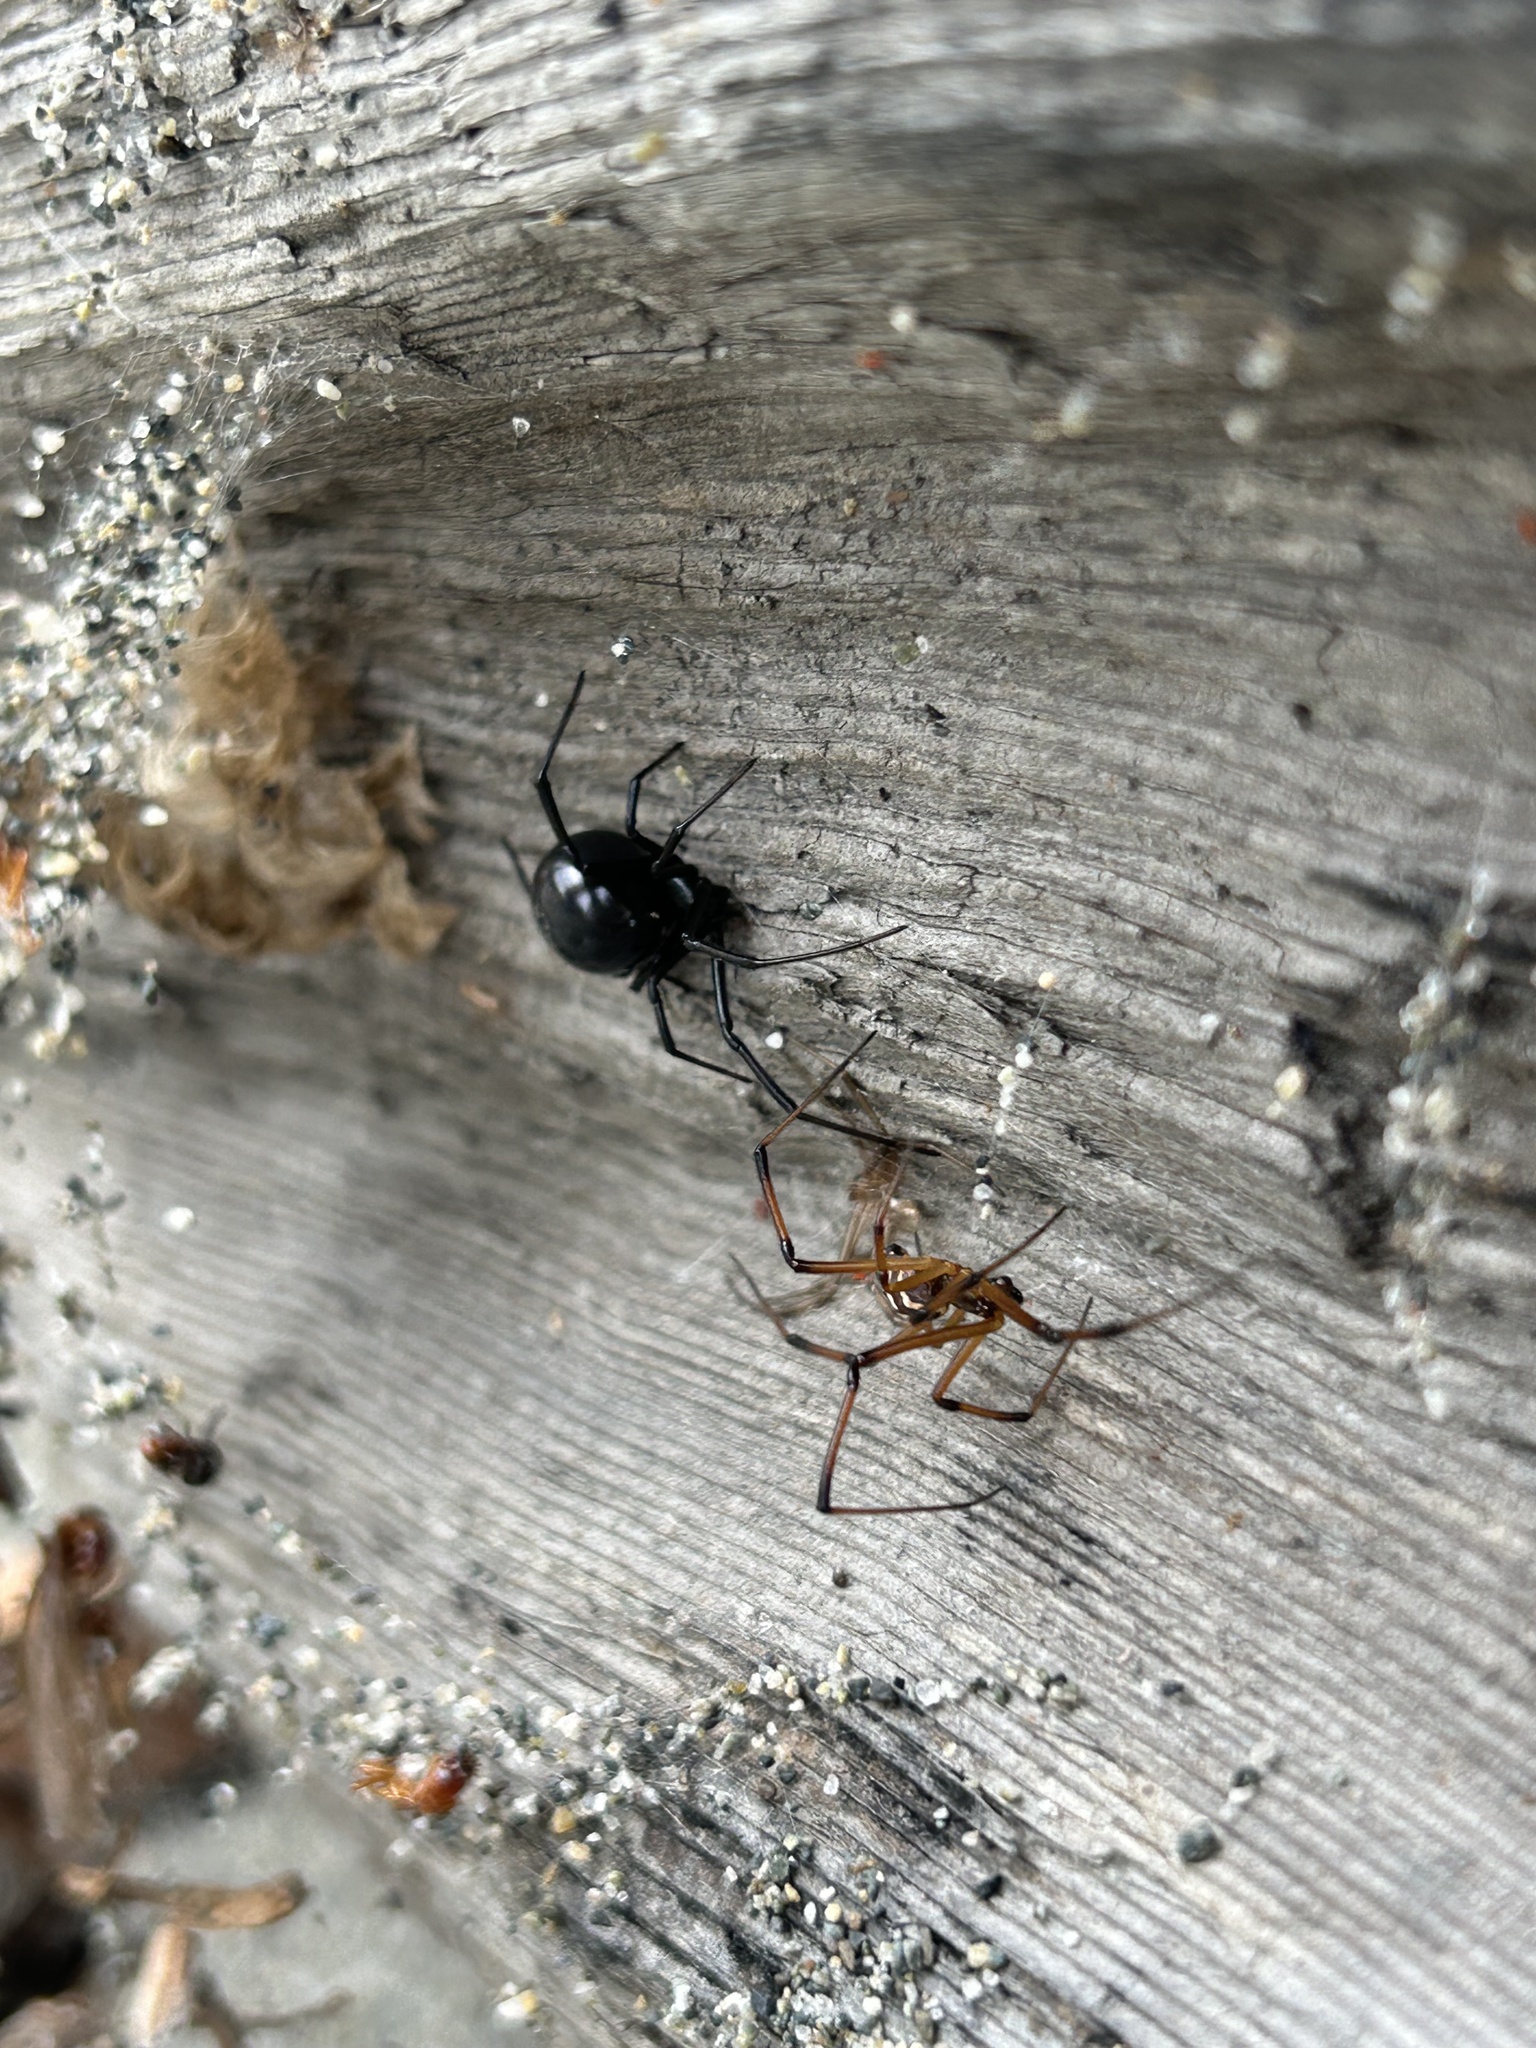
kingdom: Animalia
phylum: Arthropoda
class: Arachnida
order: Araneae
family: Theridiidae
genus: Latrodectus
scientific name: Latrodectus hesperus
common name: Western black widow
